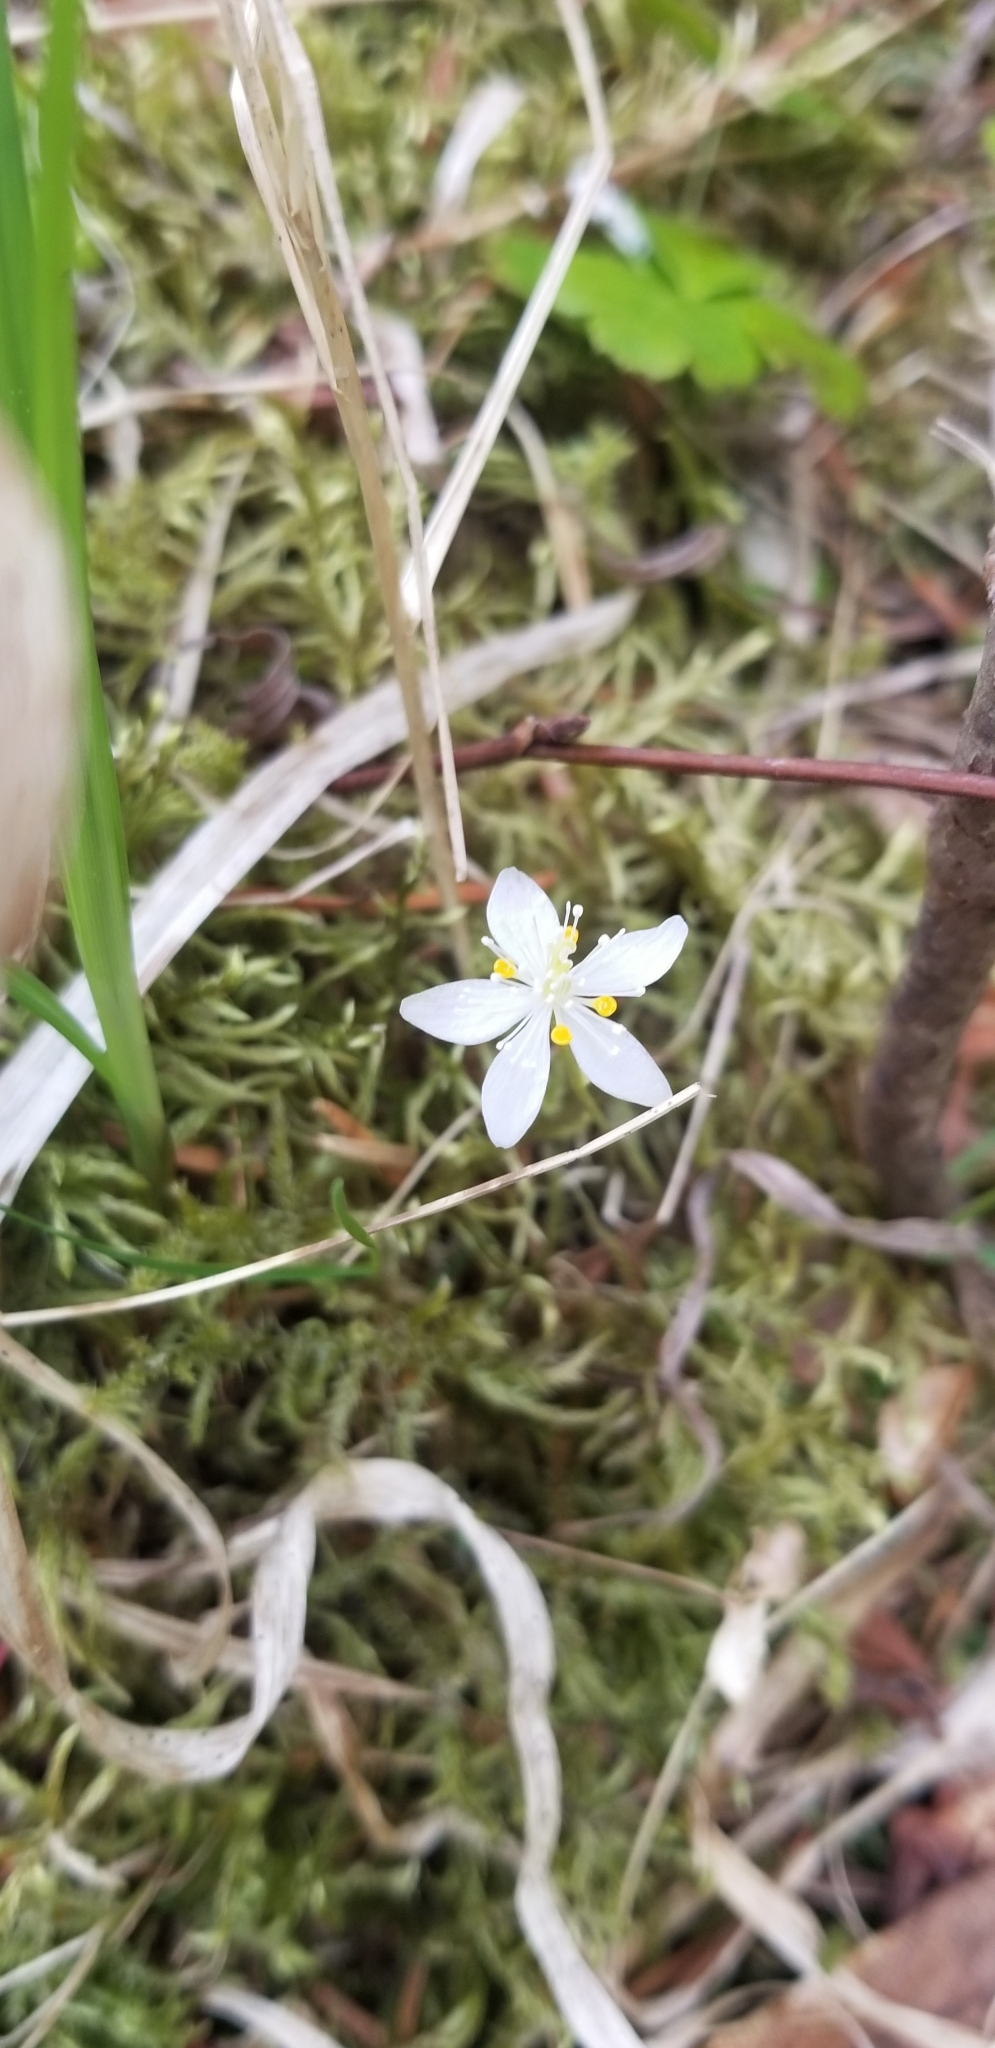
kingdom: Plantae
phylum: Tracheophyta
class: Magnoliopsida
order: Ranunculales
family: Ranunculaceae
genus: Coptis
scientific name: Coptis trifolia
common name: Canker-root
